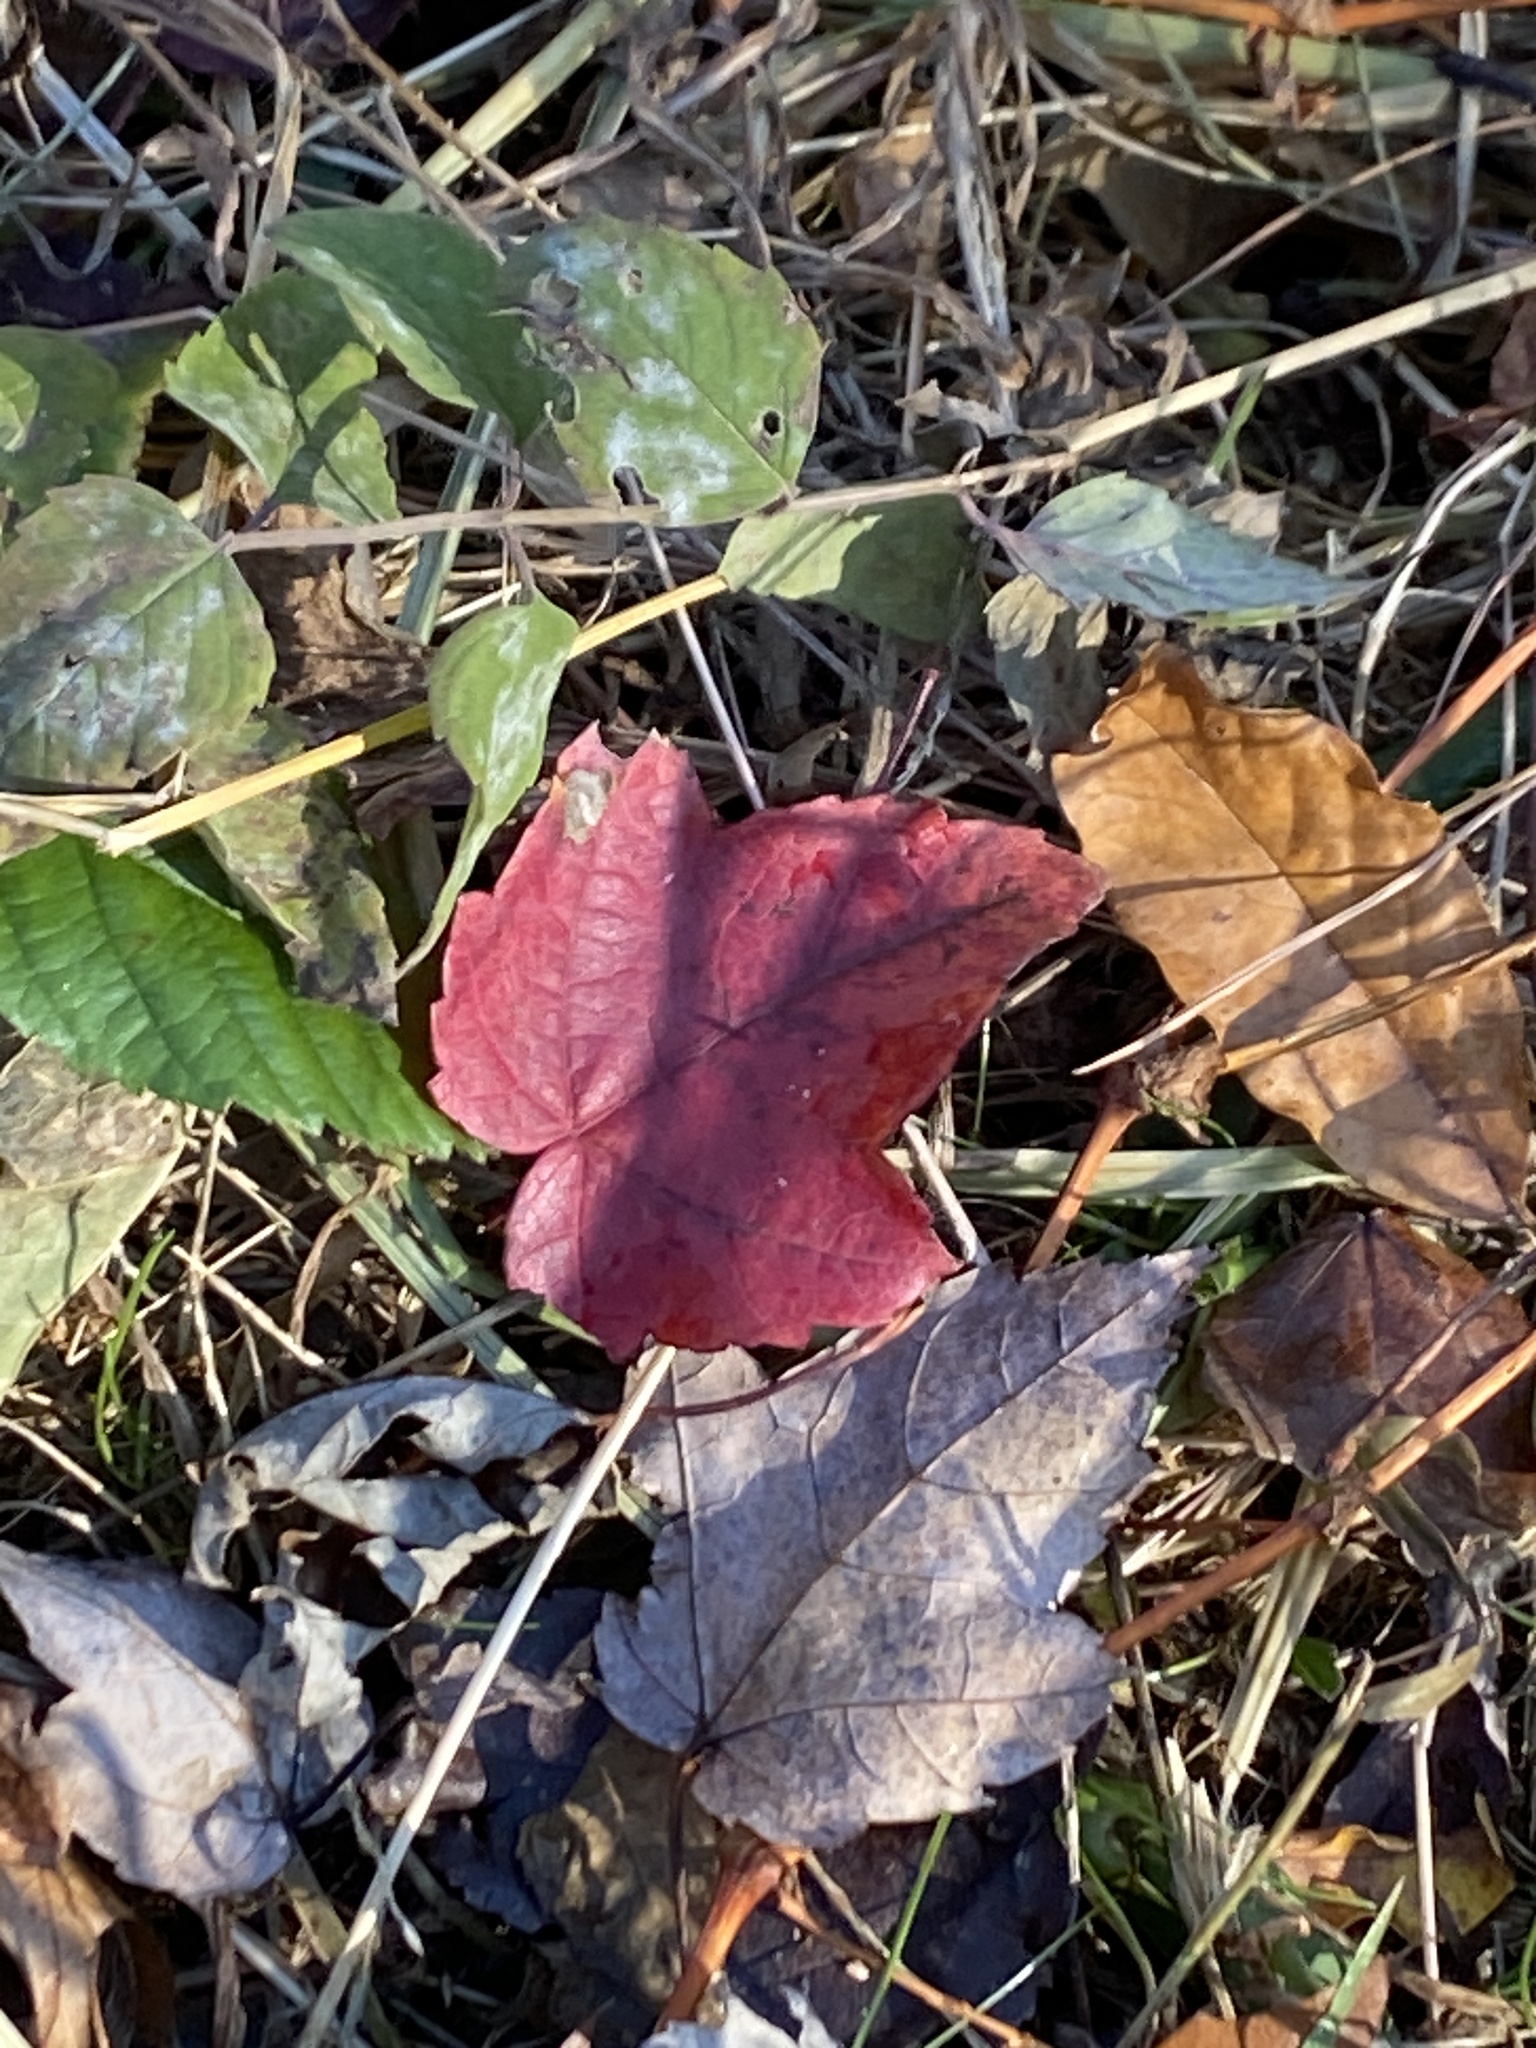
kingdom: Plantae
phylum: Tracheophyta
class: Magnoliopsida
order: Sapindales
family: Sapindaceae
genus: Acer
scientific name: Acer rubrum
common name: Red maple
